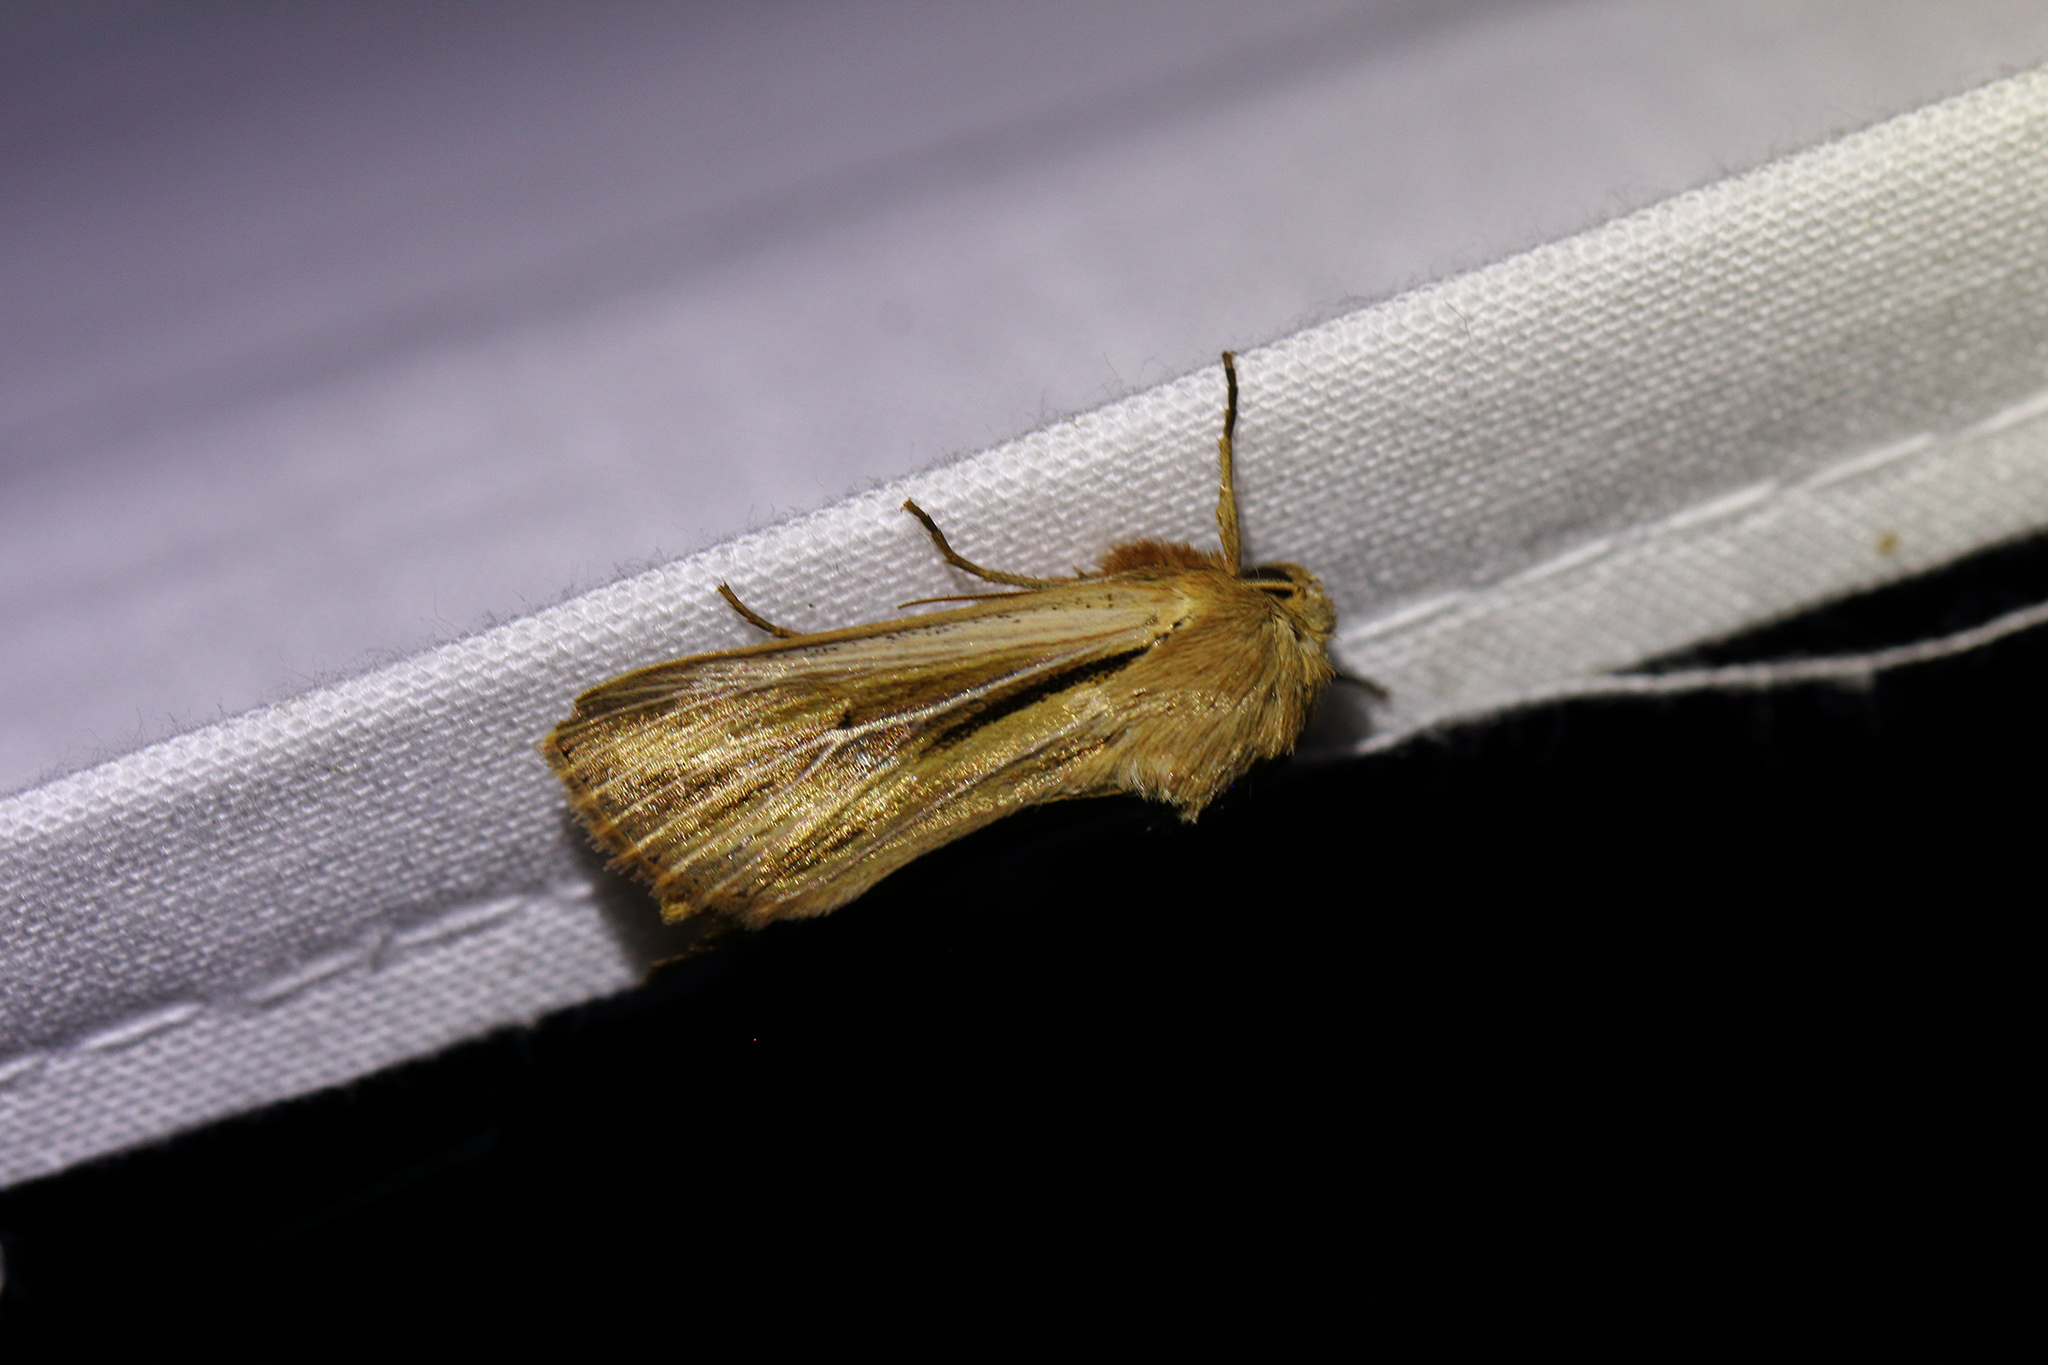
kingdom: Animalia
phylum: Arthropoda
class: Insecta
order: Lepidoptera
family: Noctuidae
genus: Leucania
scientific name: Leucania comma
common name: Shoulder-striped wainscot
